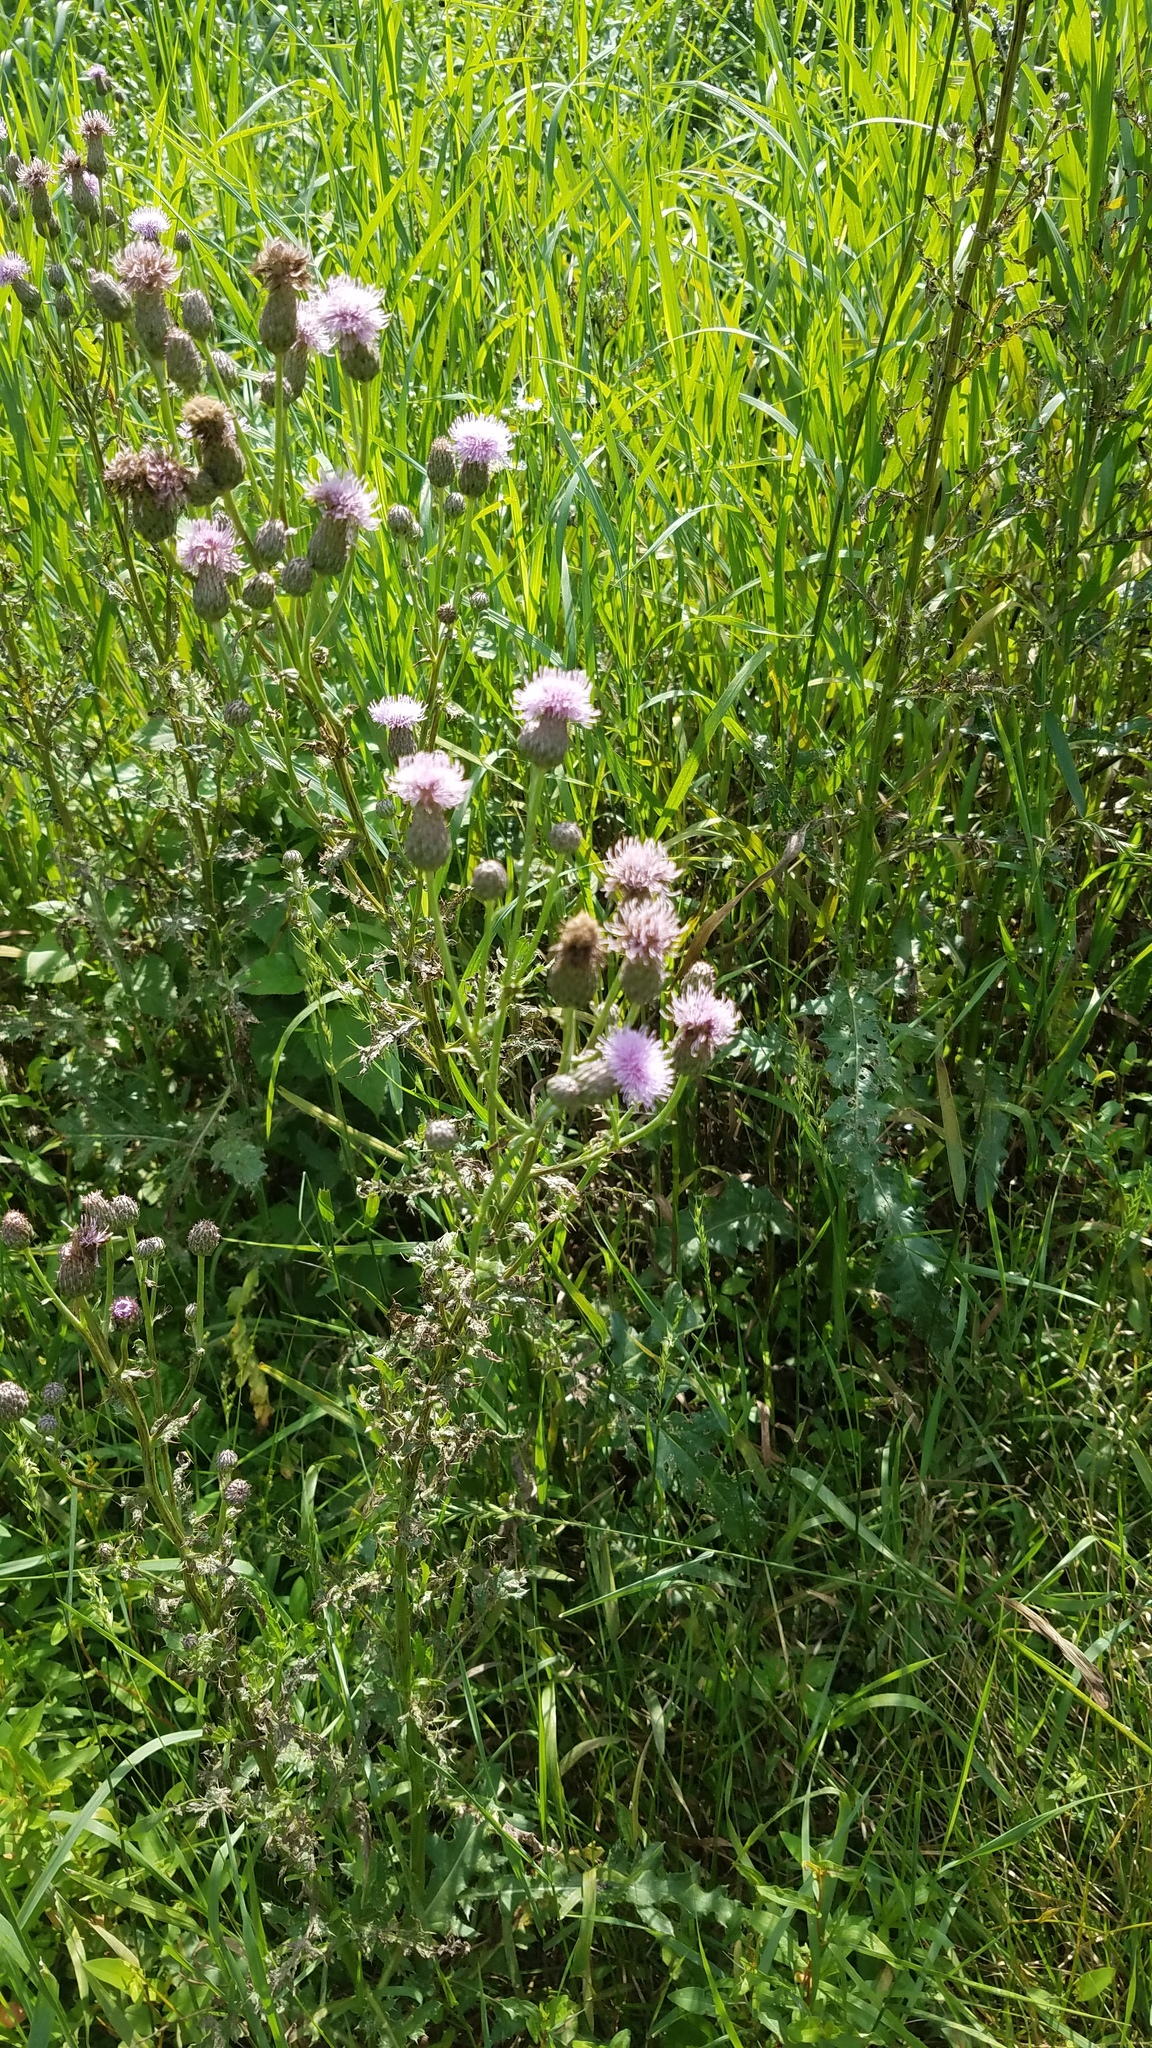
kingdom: Plantae
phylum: Tracheophyta
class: Magnoliopsida
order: Asterales
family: Asteraceae
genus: Cirsium
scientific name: Cirsium arvense
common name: Creeping thistle
